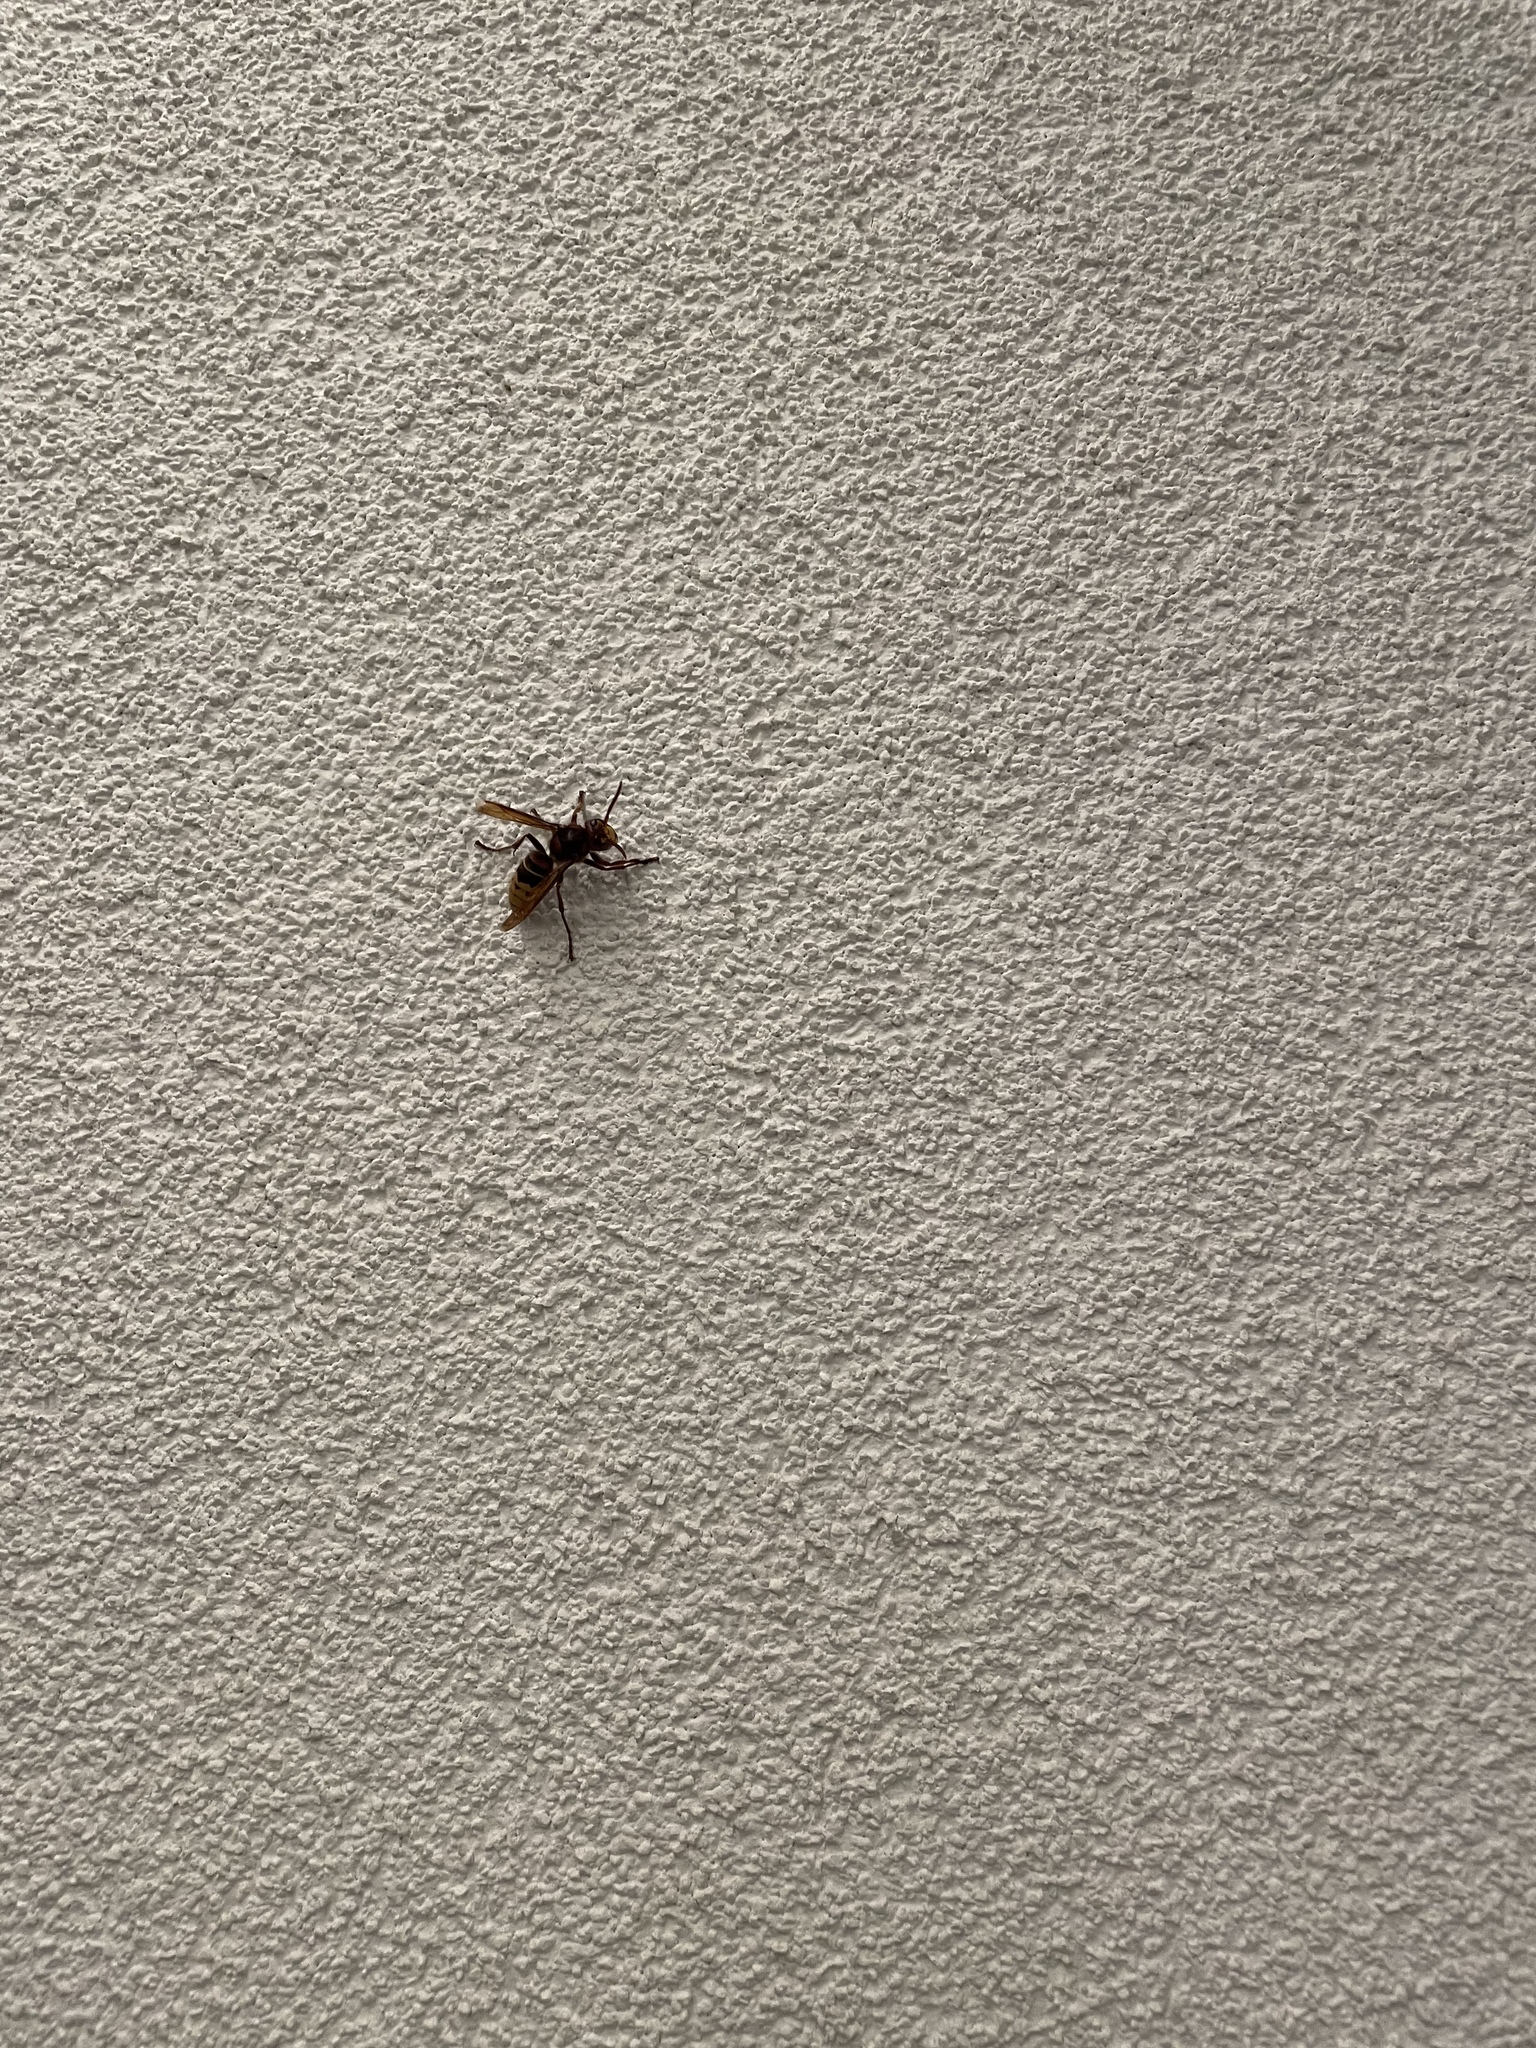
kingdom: Animalia
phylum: Arthropoda
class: Insecta
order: Hymenoptera
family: Vespidae
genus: Vespa
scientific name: Vespa crabro
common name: Hornet
